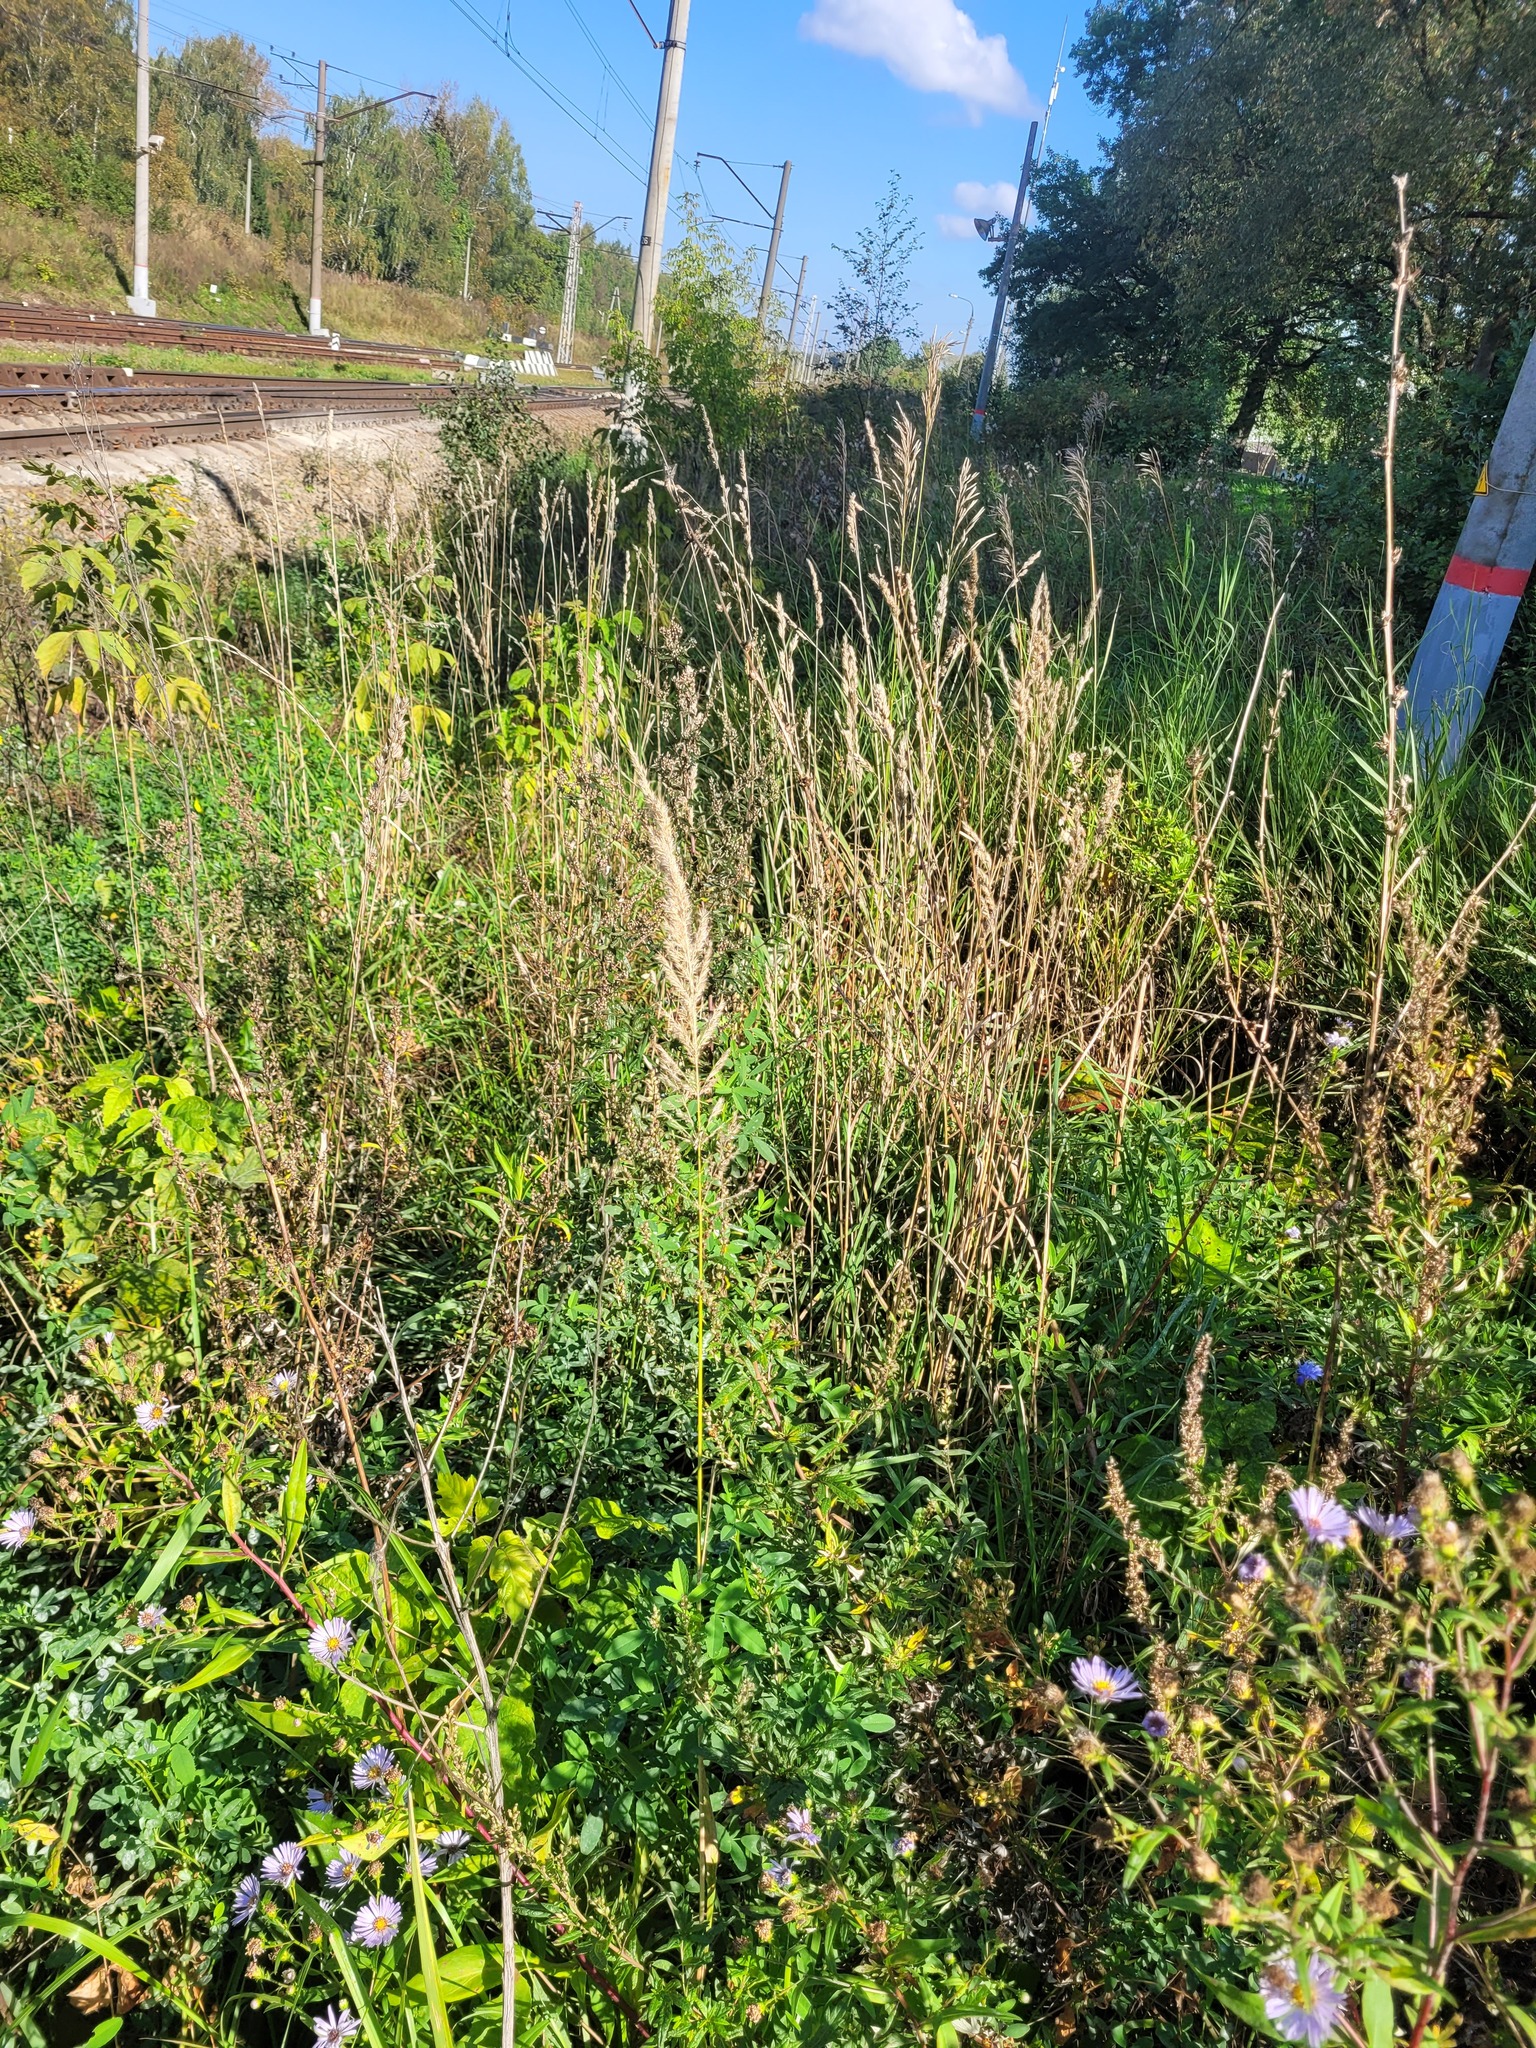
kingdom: Plantae
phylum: Tracheophyta
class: Liliopsida
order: Poales
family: Poaceae
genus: Calamagrostis
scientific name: Calamagrostis epigejos
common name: Wood small-reed
